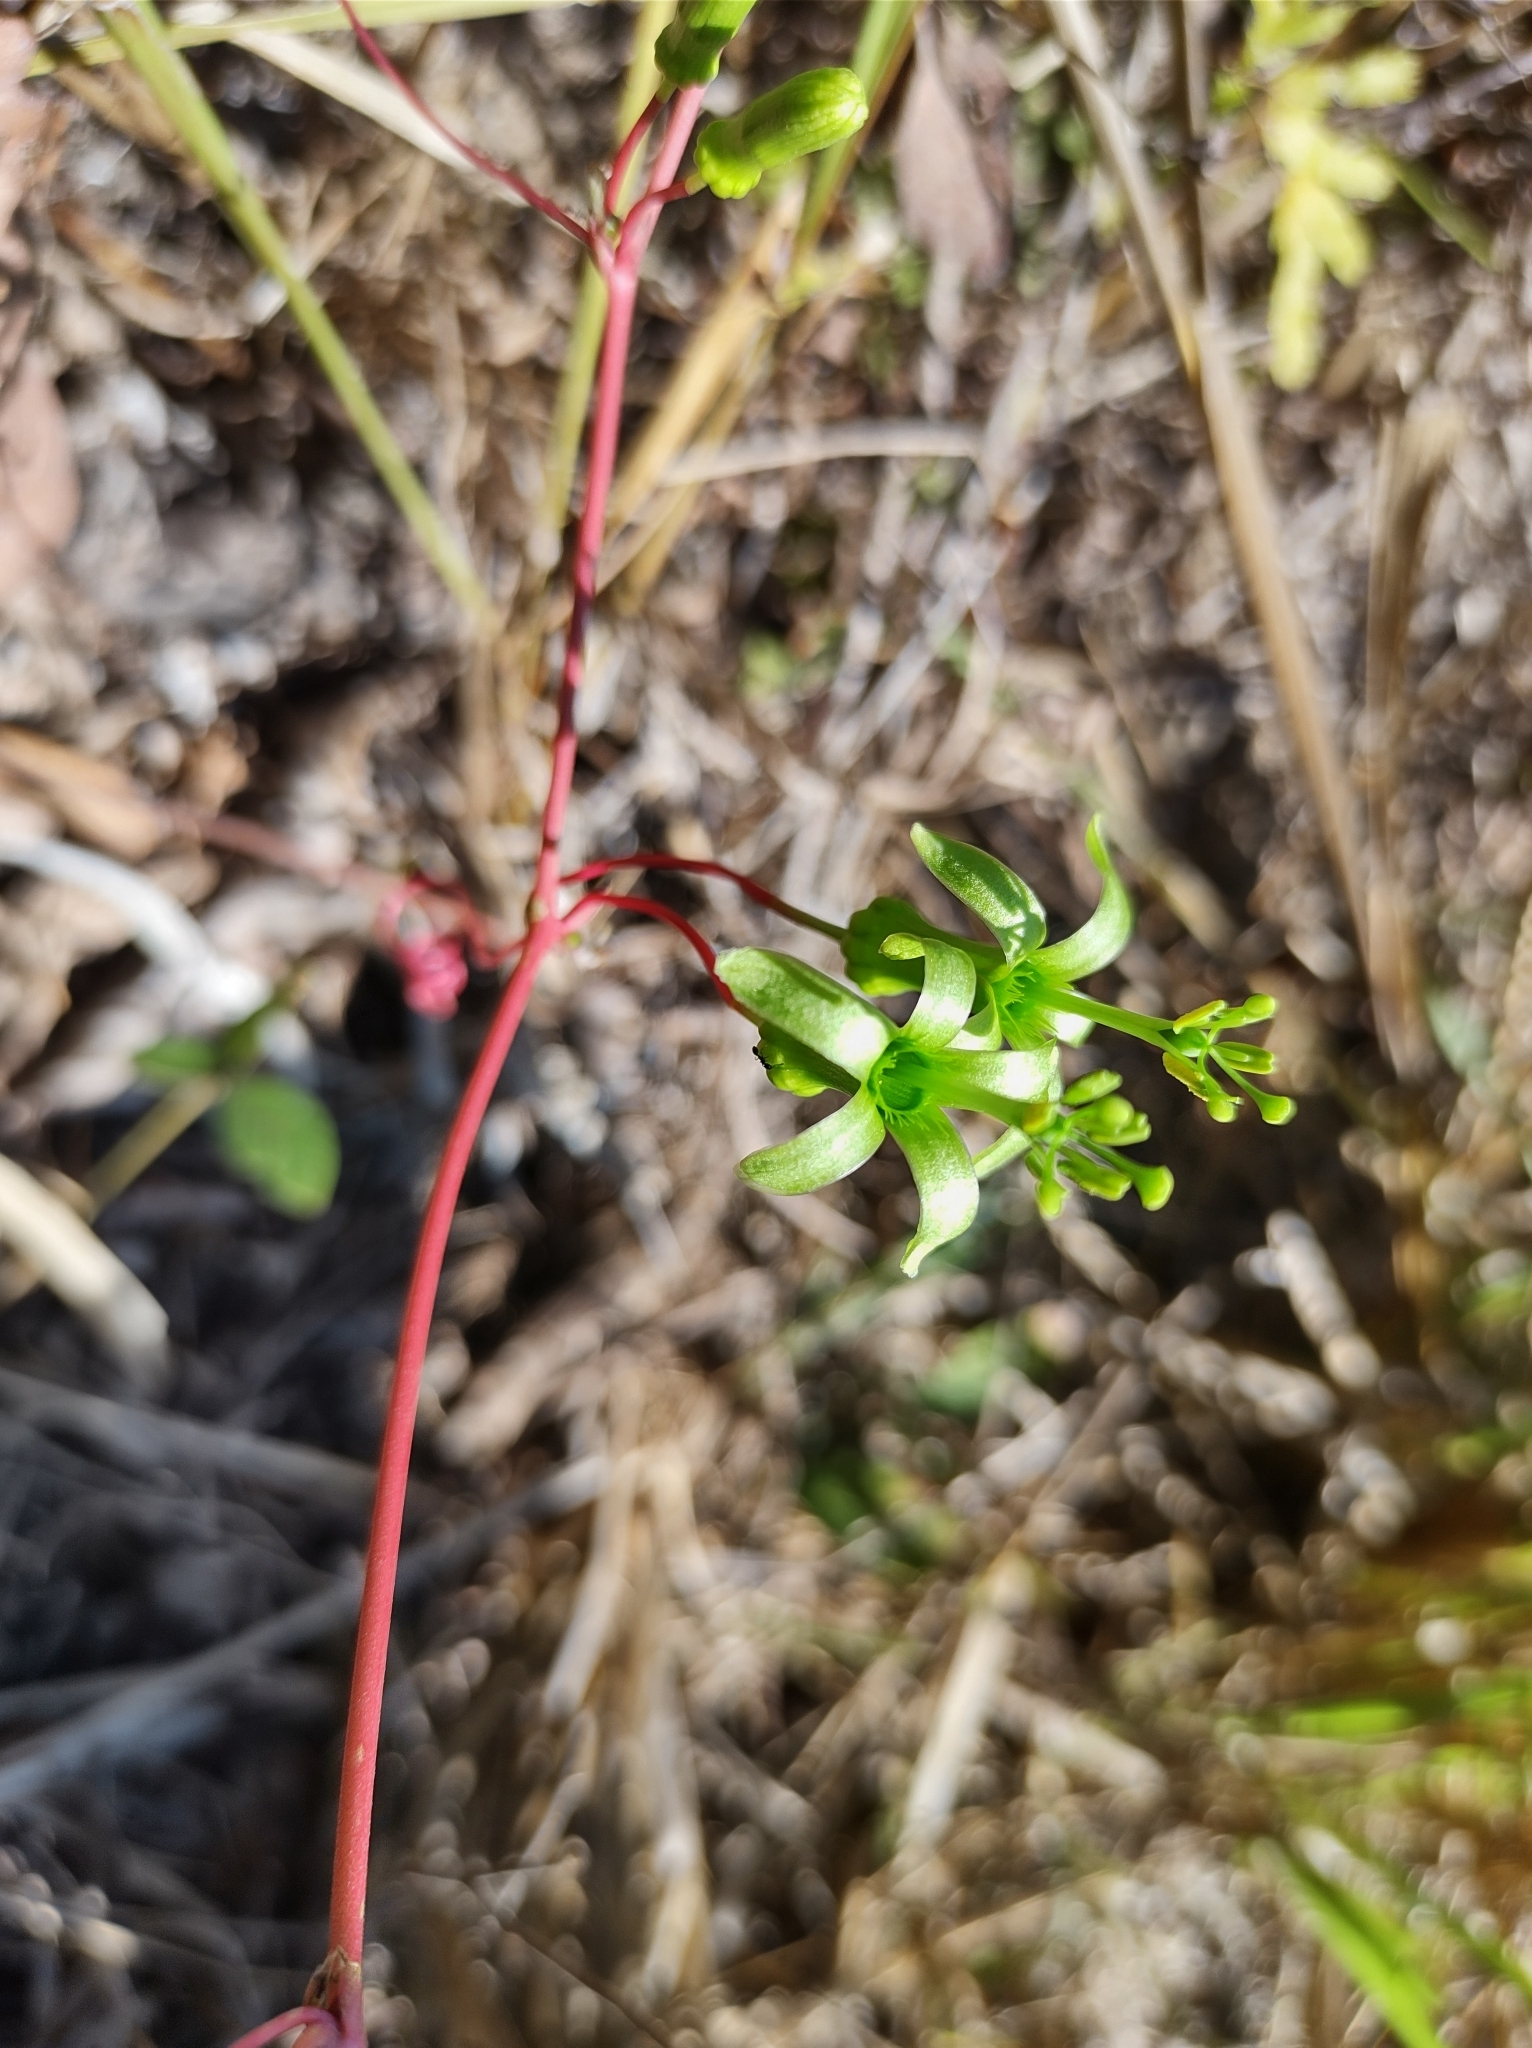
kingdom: Plantae
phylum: Tracheophyta
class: Magnoliopsida
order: Malpighiales
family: Passifloraceae
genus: Passiflora
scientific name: Passiflora viridiflora
